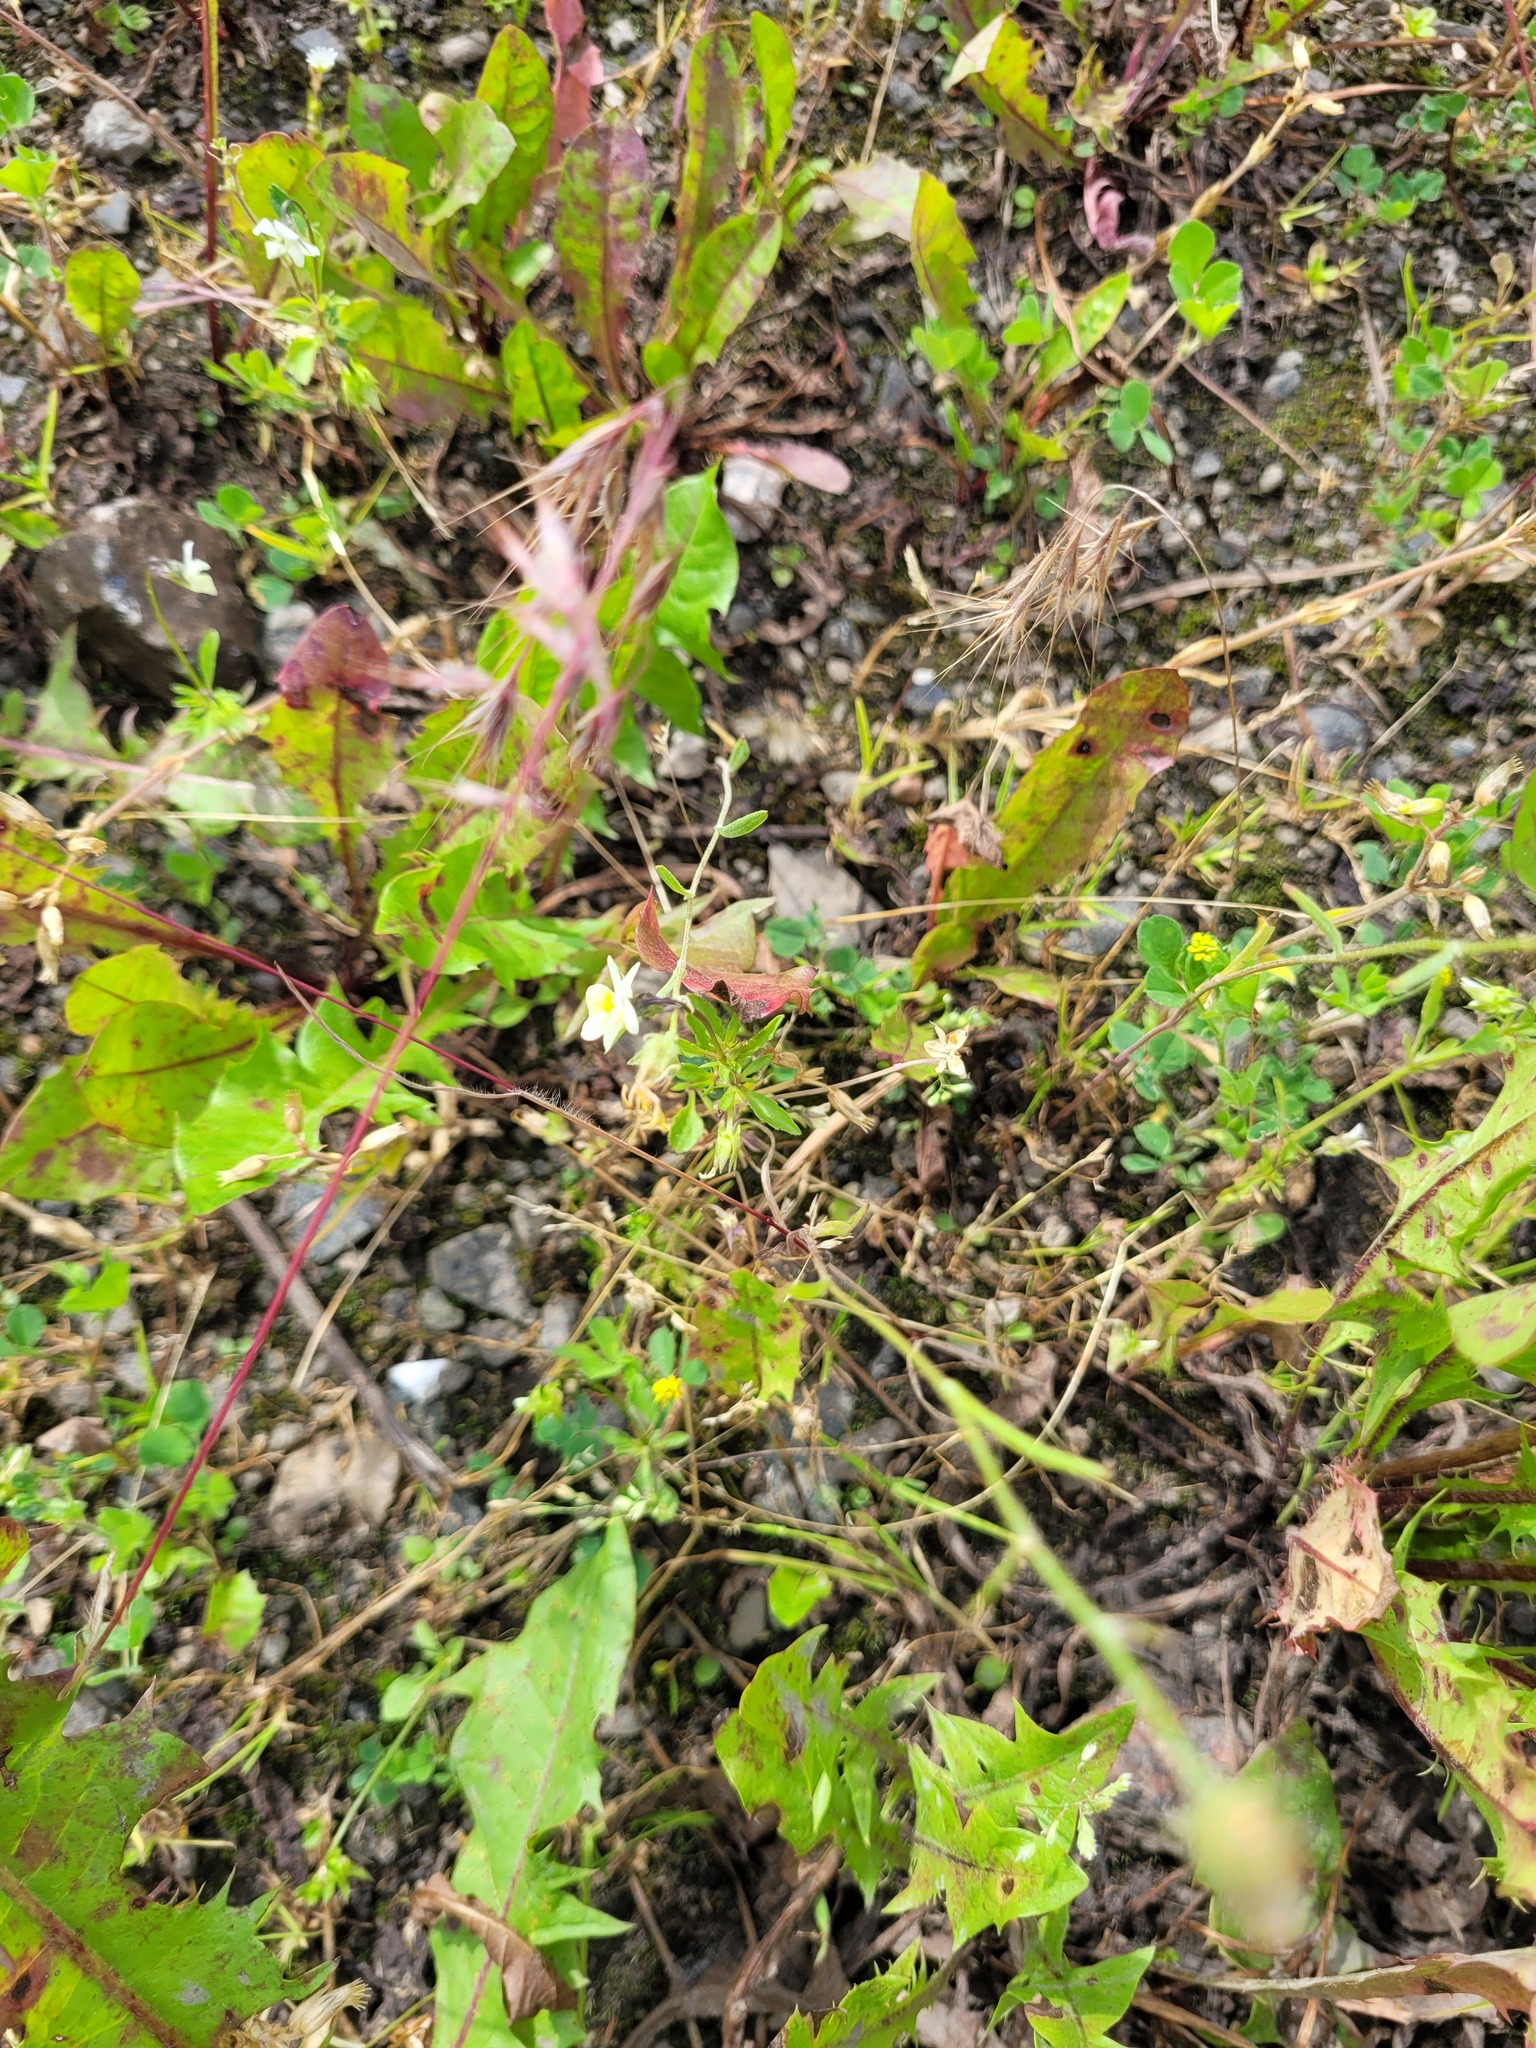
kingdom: Plantae
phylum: Tracheophyta
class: Magnoliopsida
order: Malpighiales
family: Violaceae
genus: Viola
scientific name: Viola arvensis
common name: Field pansy
